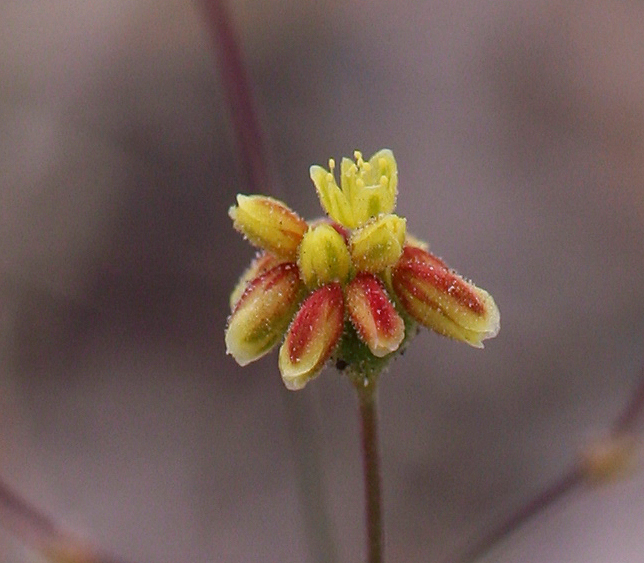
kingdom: Plantae
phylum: Tracheophyta
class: Magnoliopsida
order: Caryophyllales
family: Polygonaceae
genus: Eriogonum
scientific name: Eriogonum pusillum
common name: Yellow turbans
